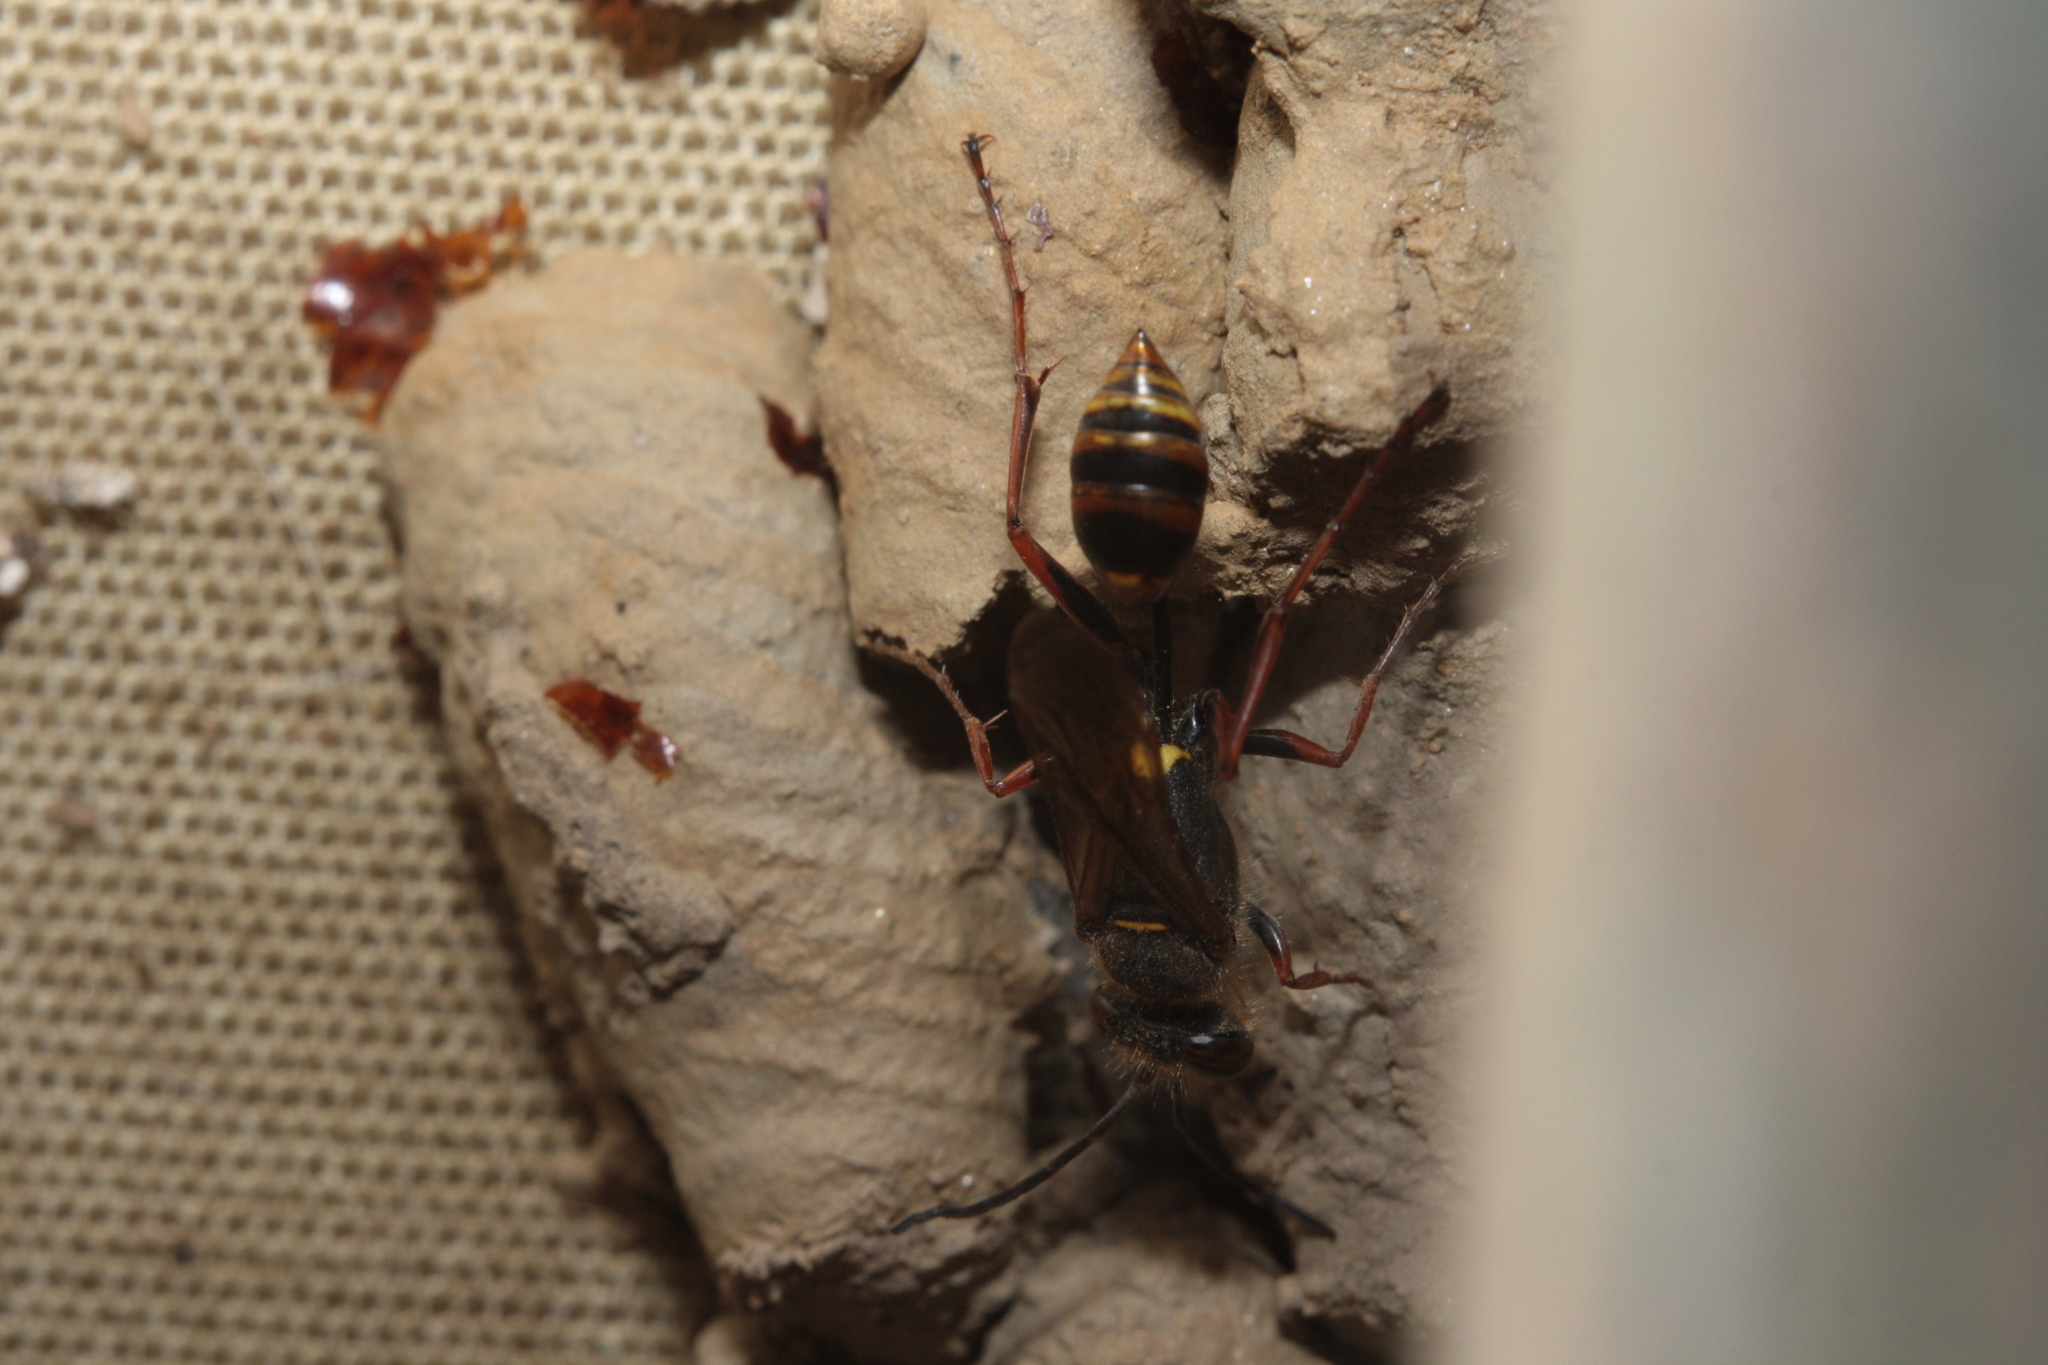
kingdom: Animalia
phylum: Arthropoda
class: Insecta
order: Hymenoptera
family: Sphecidae
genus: Sceliphron
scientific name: Sceliphron curvatum
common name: Pèlopèe
